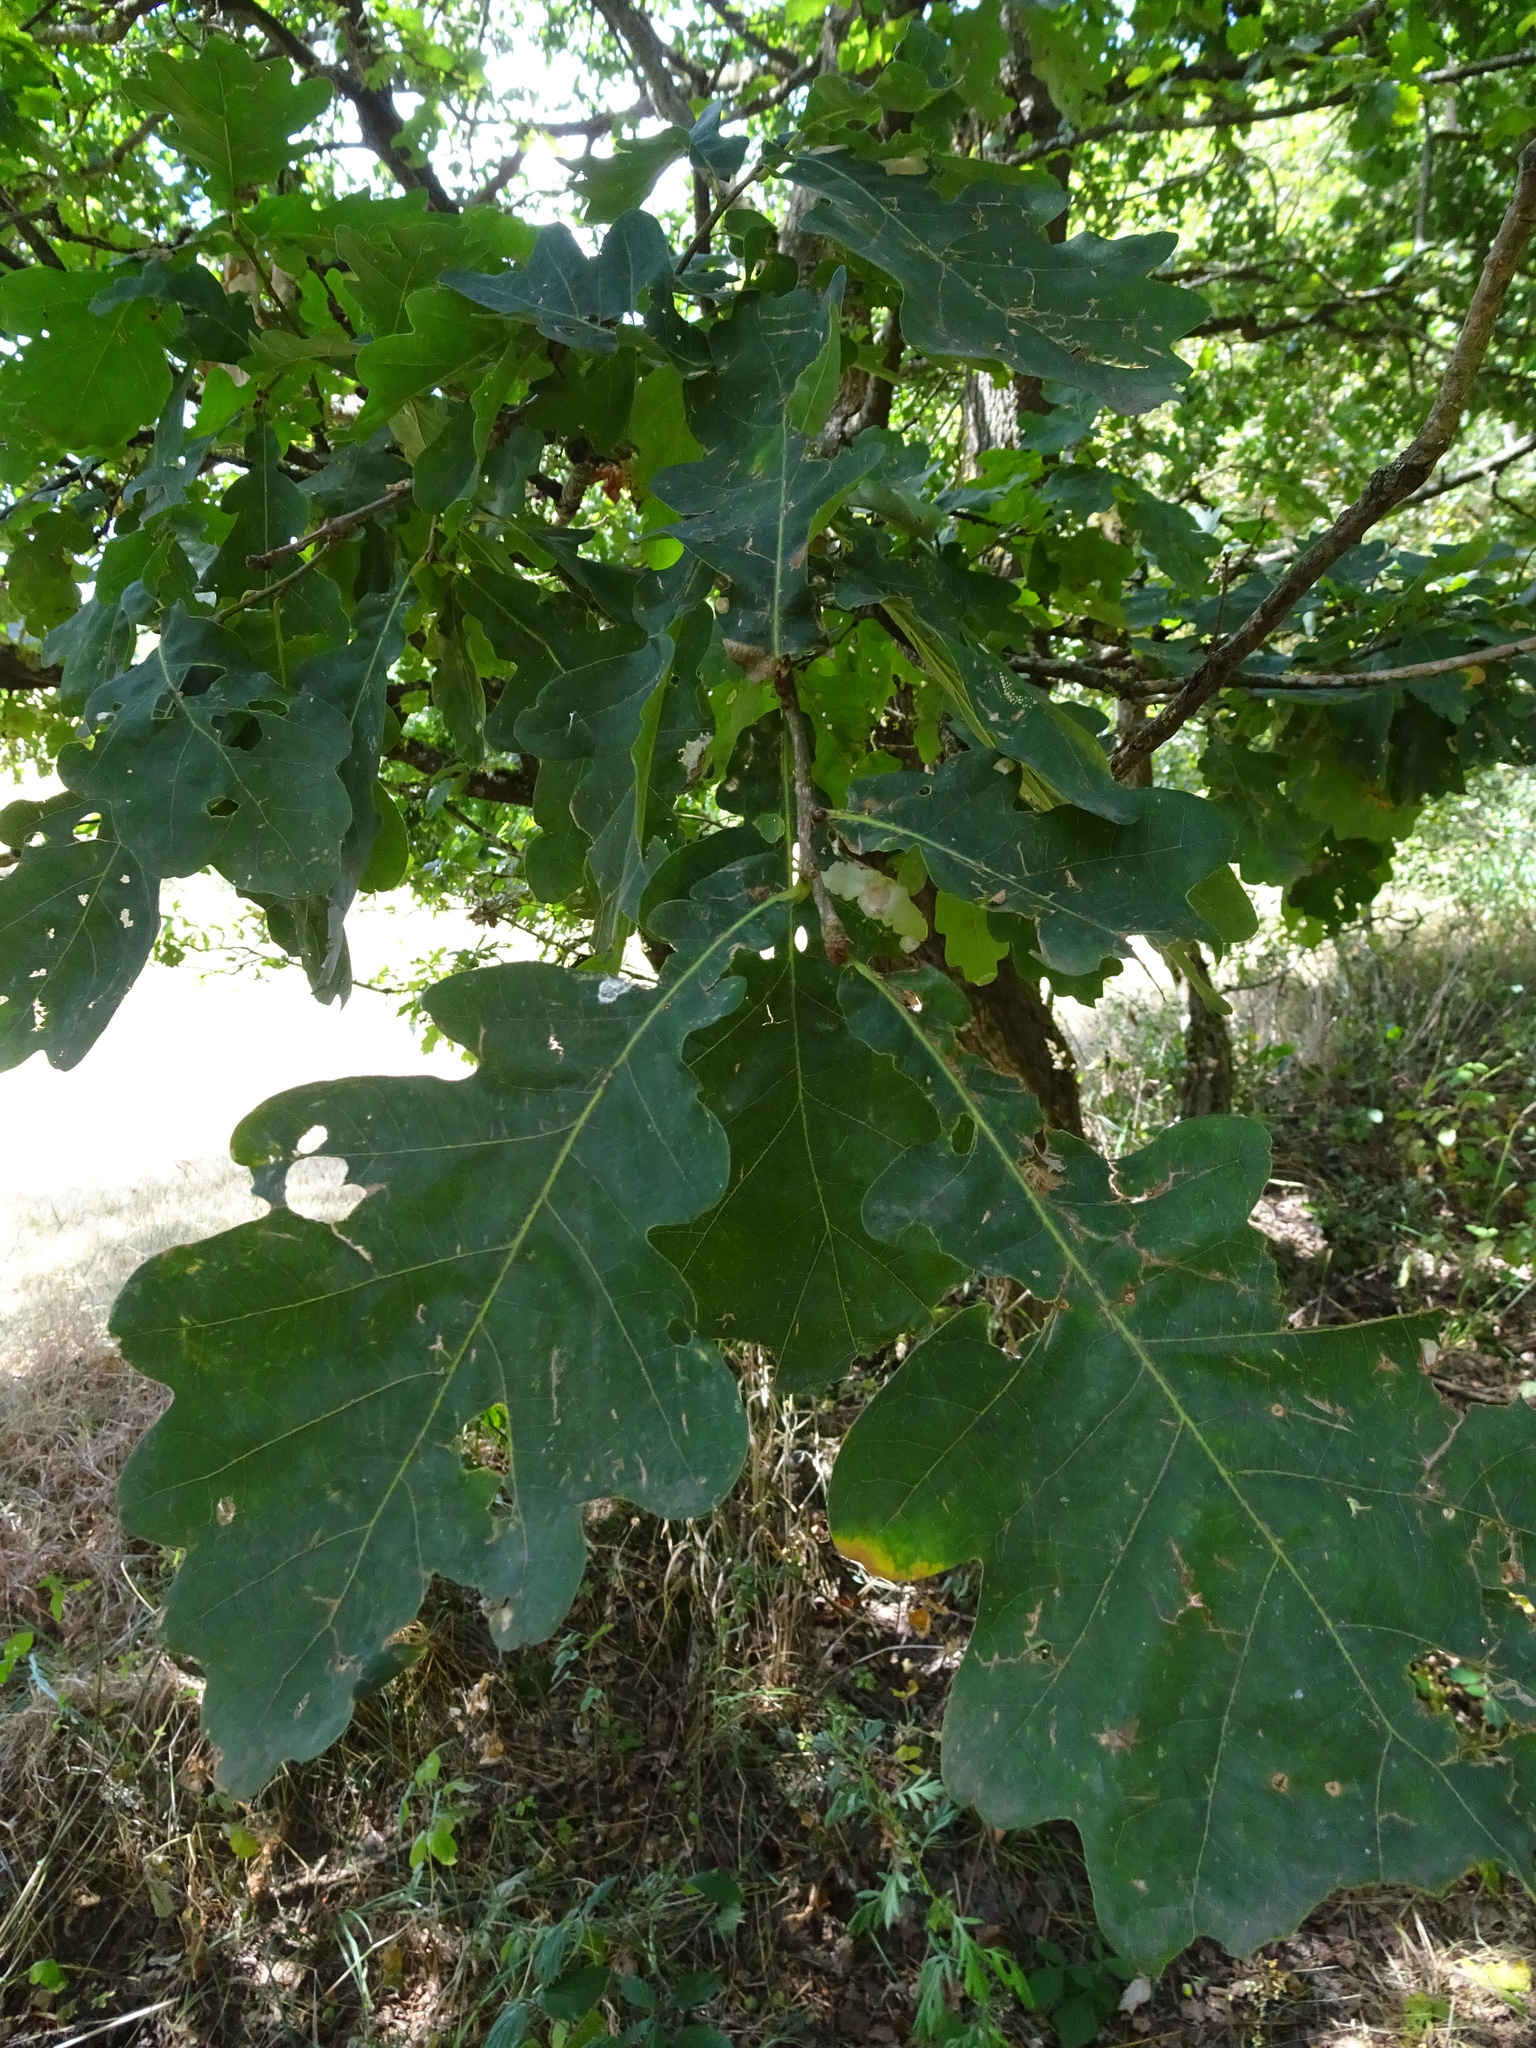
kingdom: Plantae
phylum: Tracheophyta
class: Magnoliopsida
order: Fagales
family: Fagaceae
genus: Quercus
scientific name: Quercus robur
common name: Pedunculate oak
